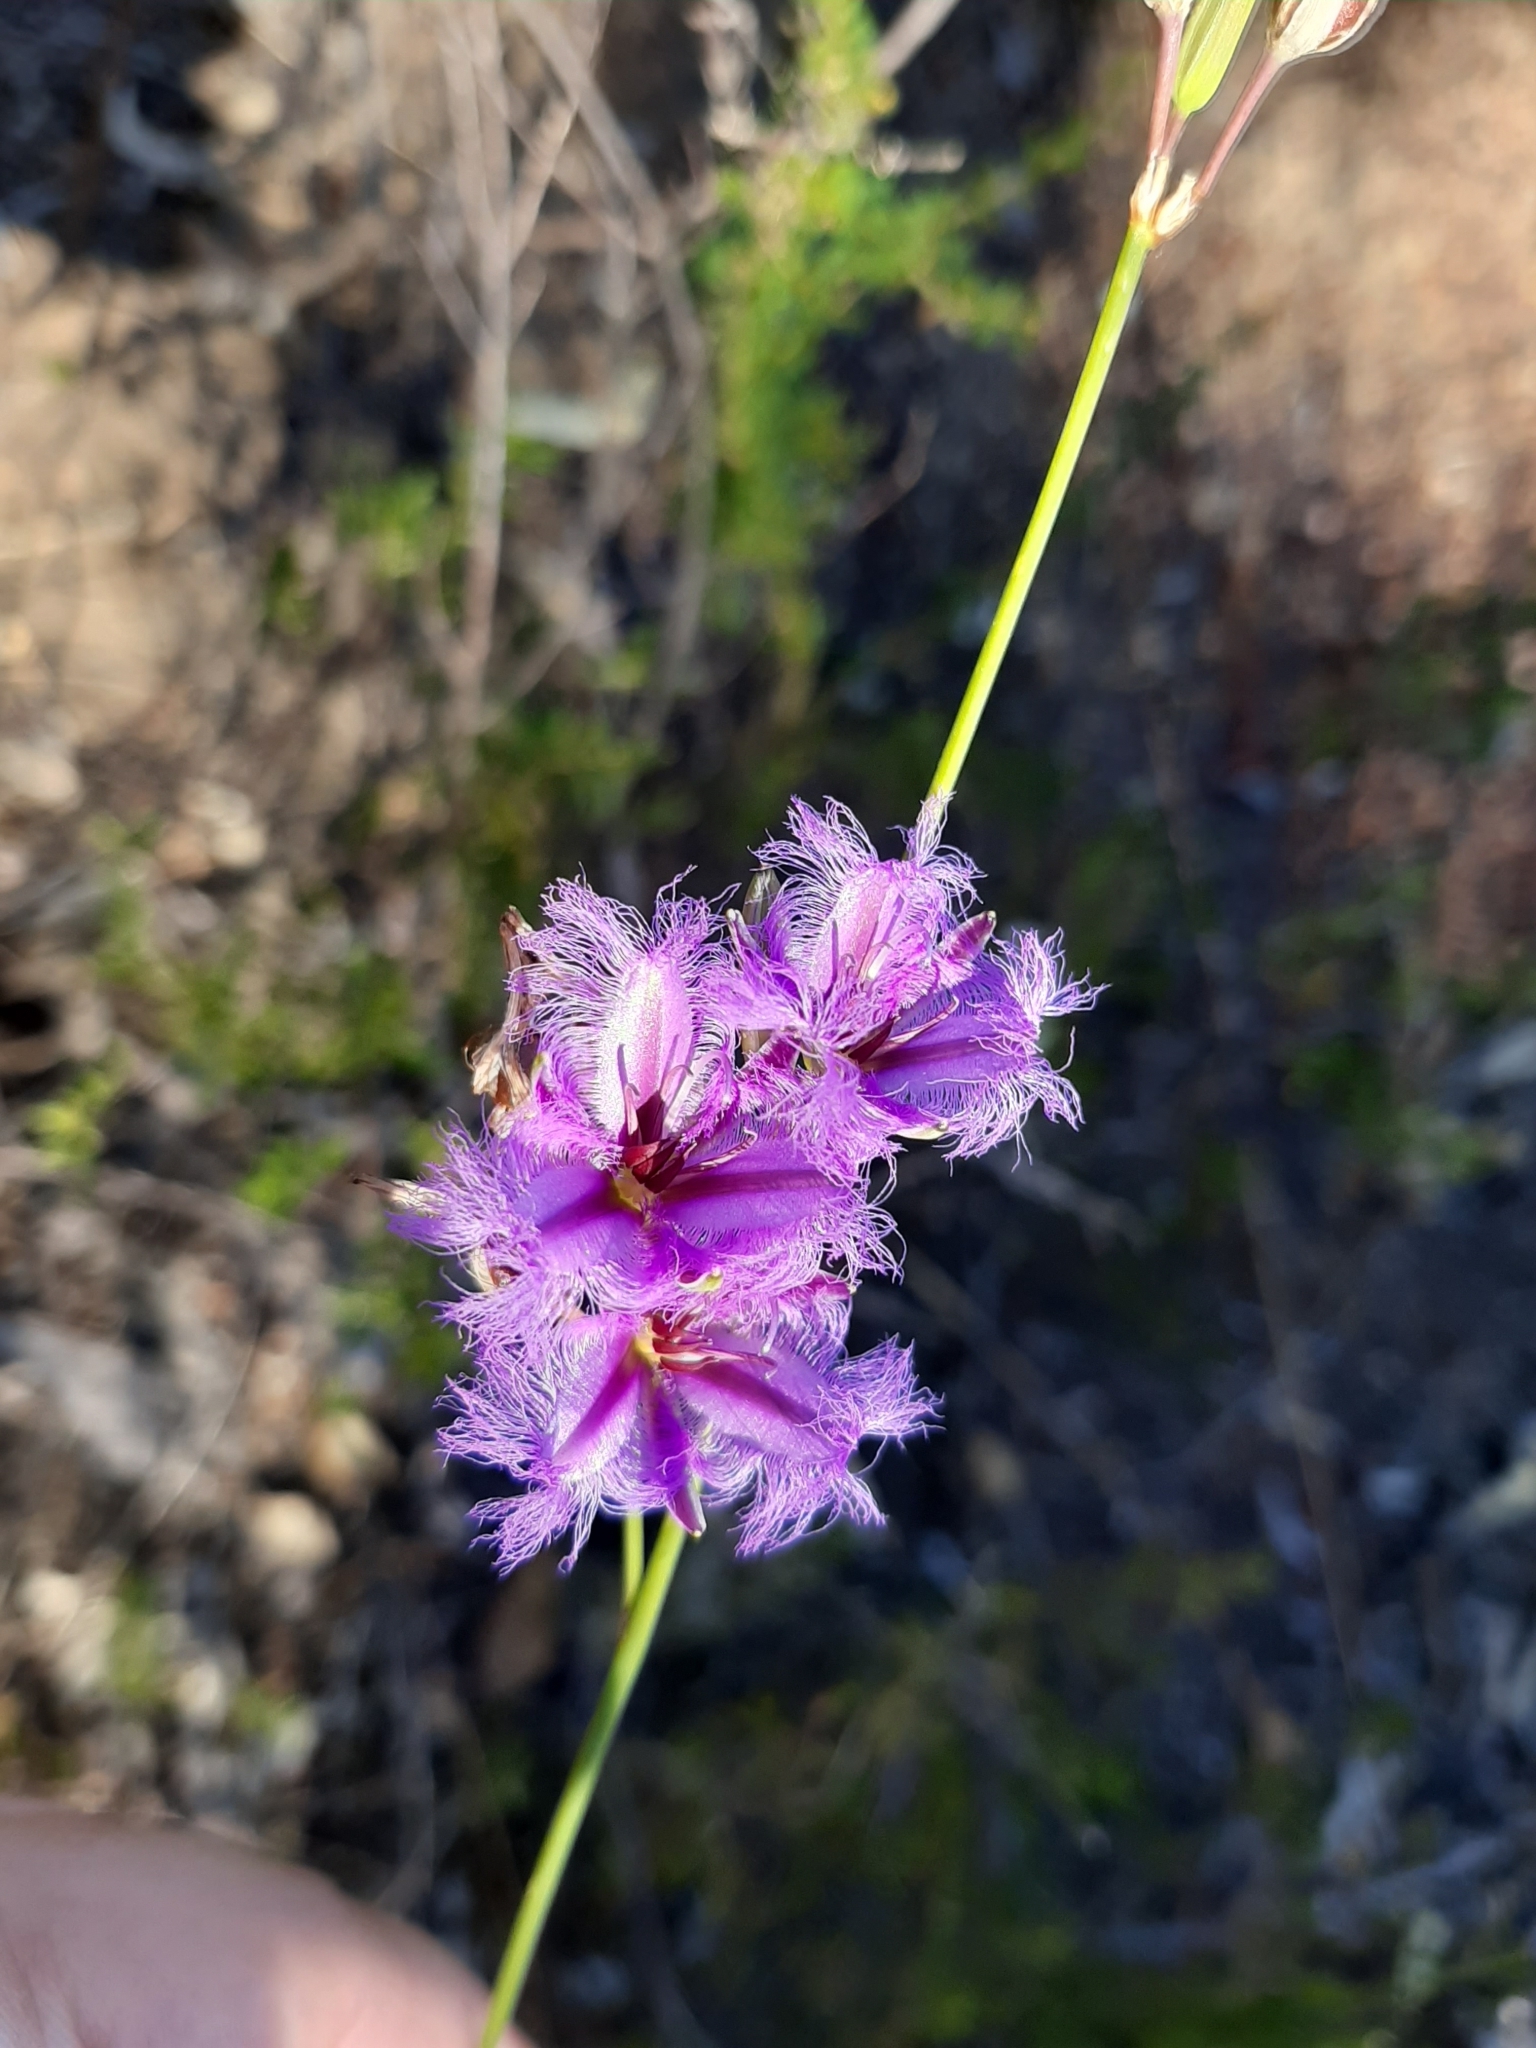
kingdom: Plantae
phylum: Tracheophyta
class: Liliopsida
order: Asparagales
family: Asparagaceae
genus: Thysanotus
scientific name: Thysanotus sparteus
